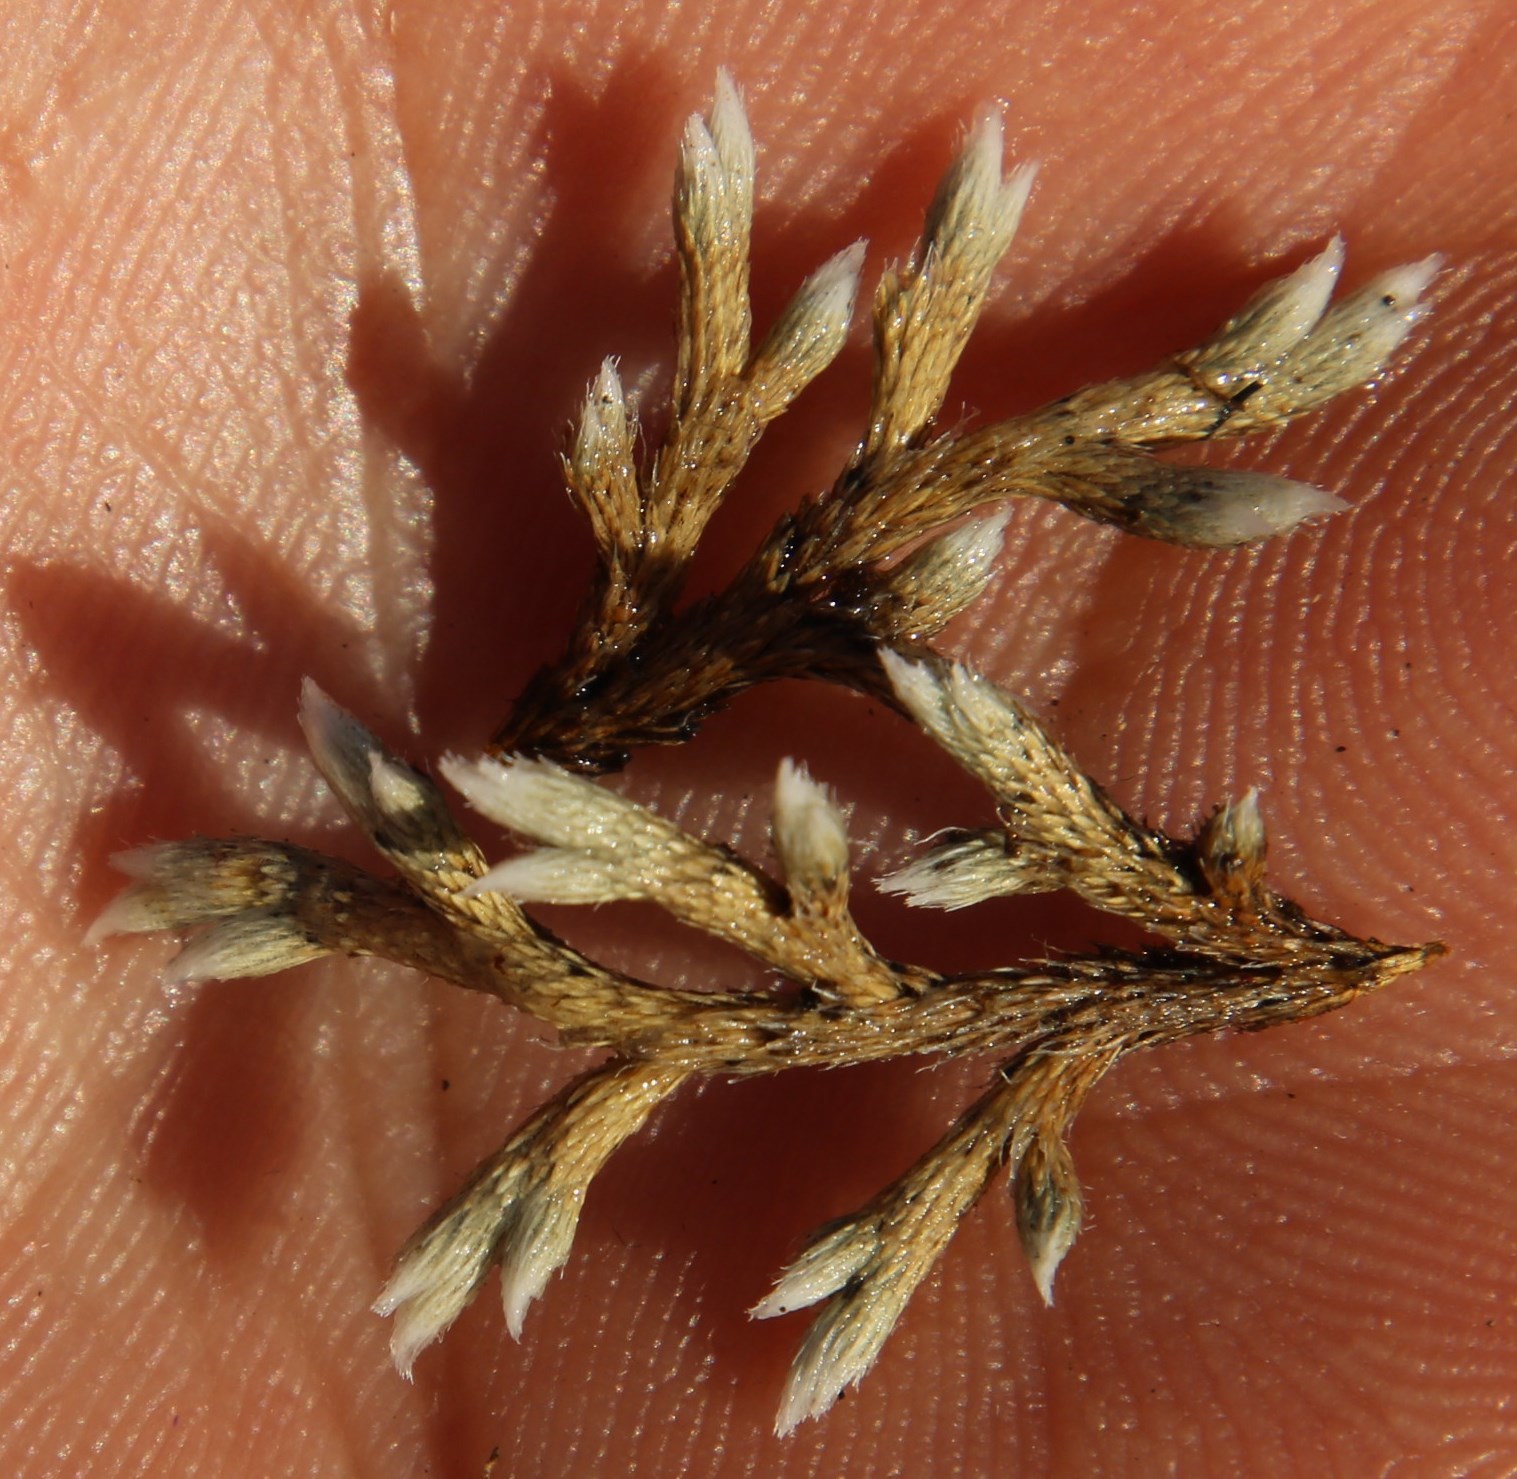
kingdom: Plantae
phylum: Tracheophyta
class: Lycopodiopsida
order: Selaginellales
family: Selaginellaceae
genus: Selaginella
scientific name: Selaginella dregei
